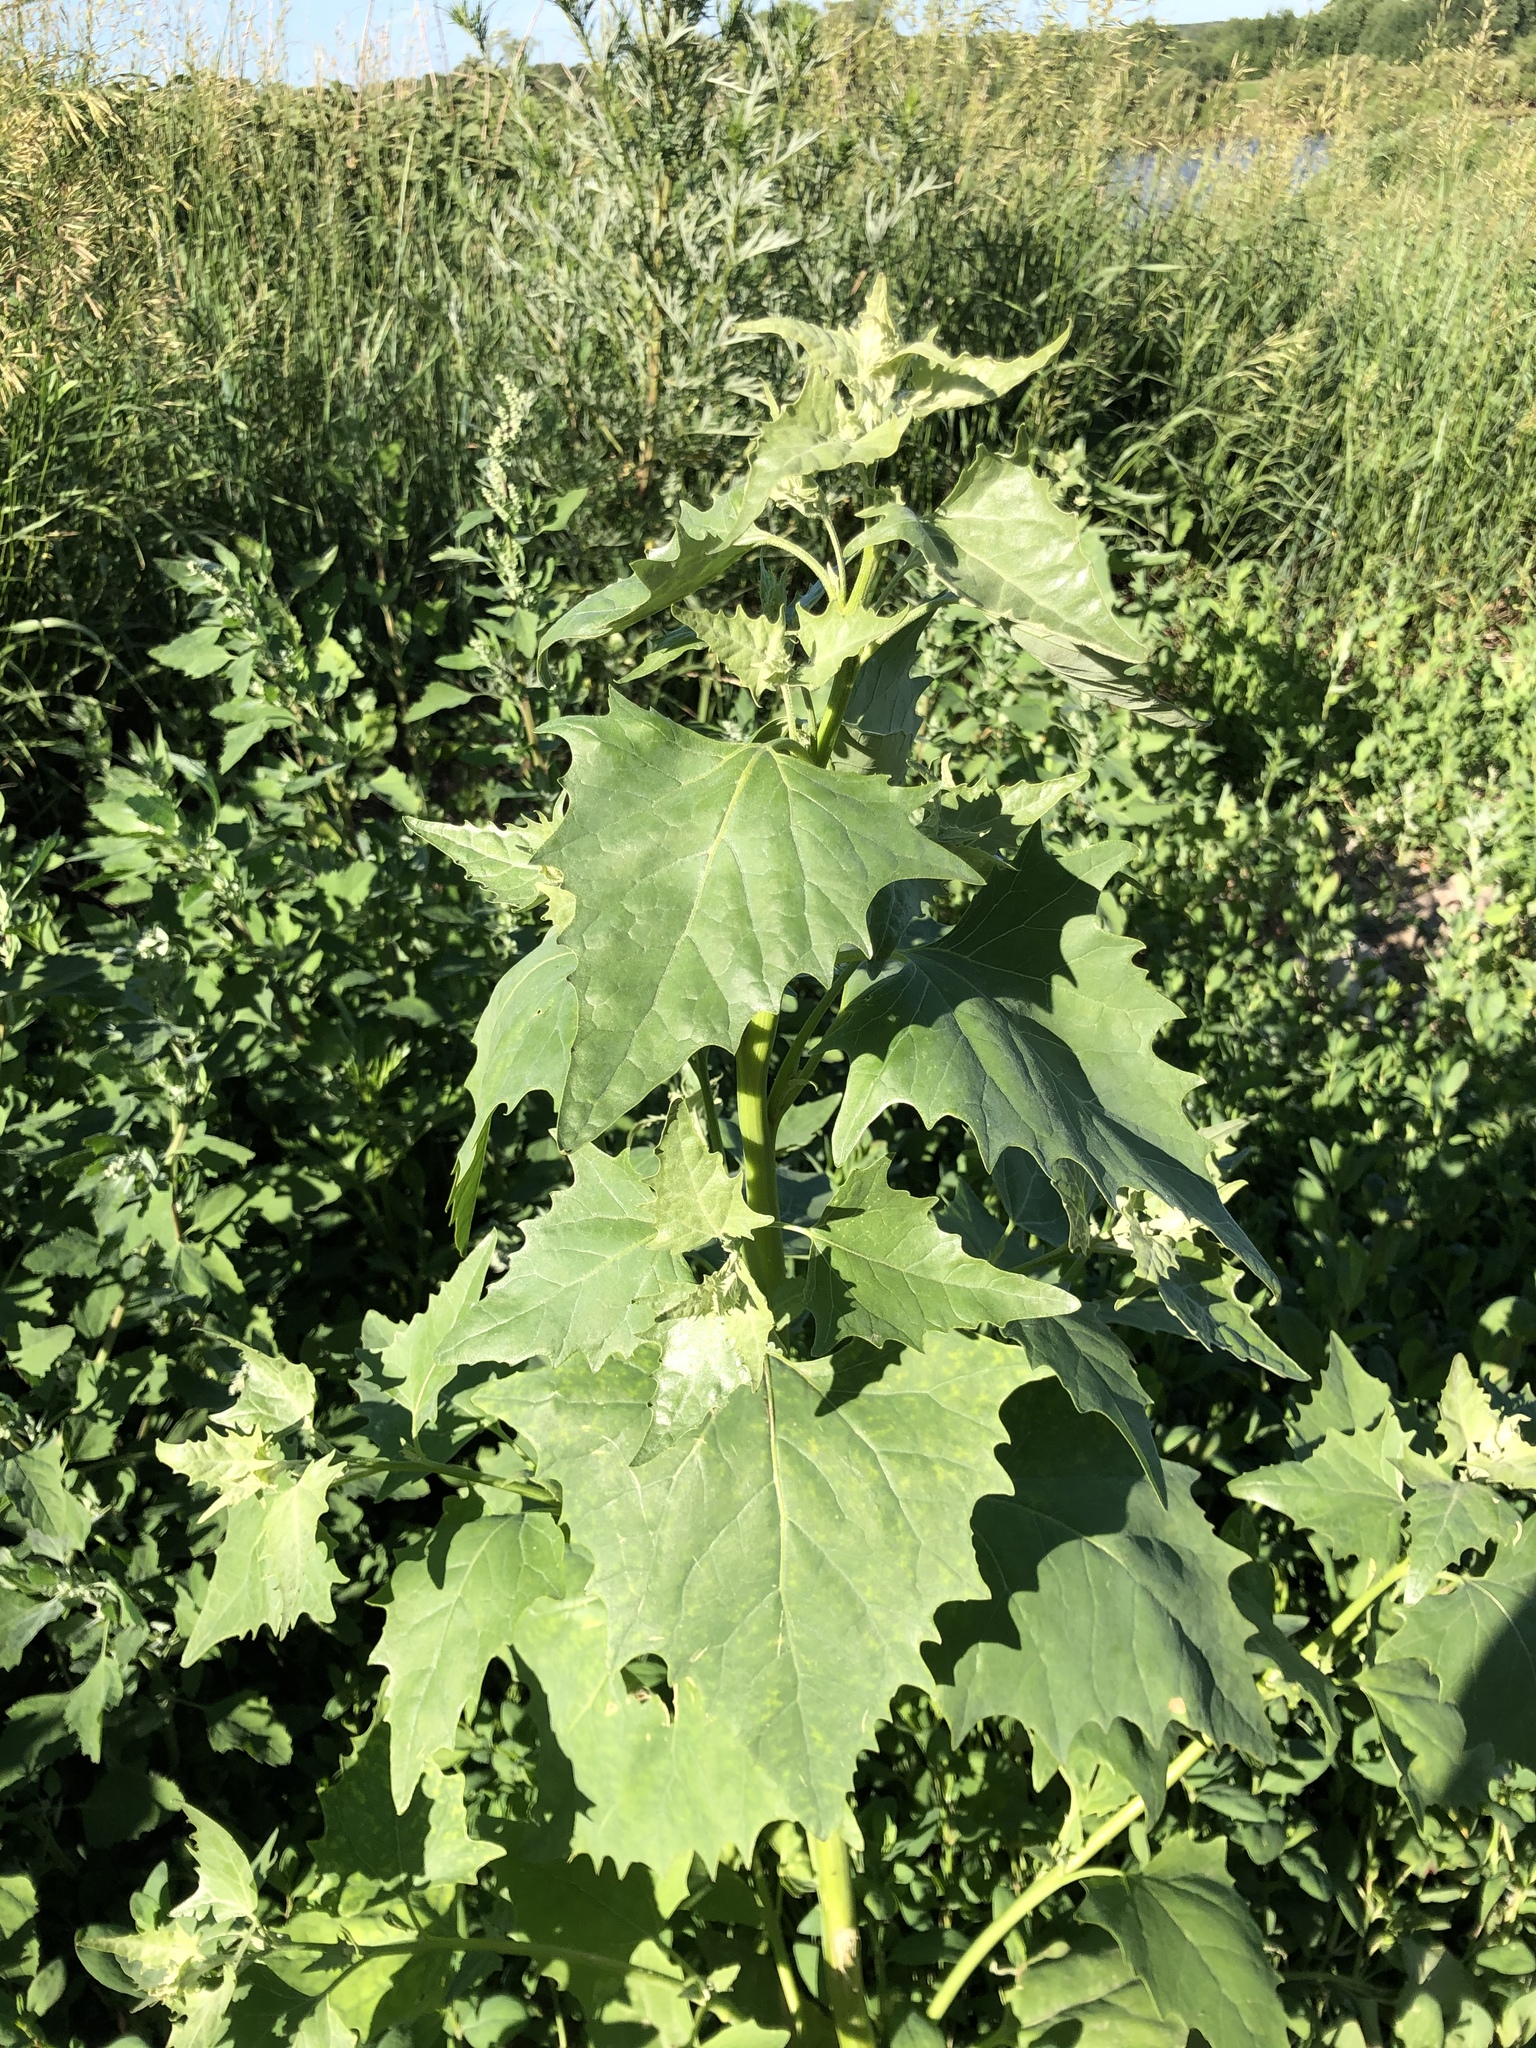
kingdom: Plantae
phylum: Tracheophyta
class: Magnoliopsida
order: Caryophyllales
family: Amaranthaceae
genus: Atriplex
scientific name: Atriplex sagittata
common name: Purple orache
